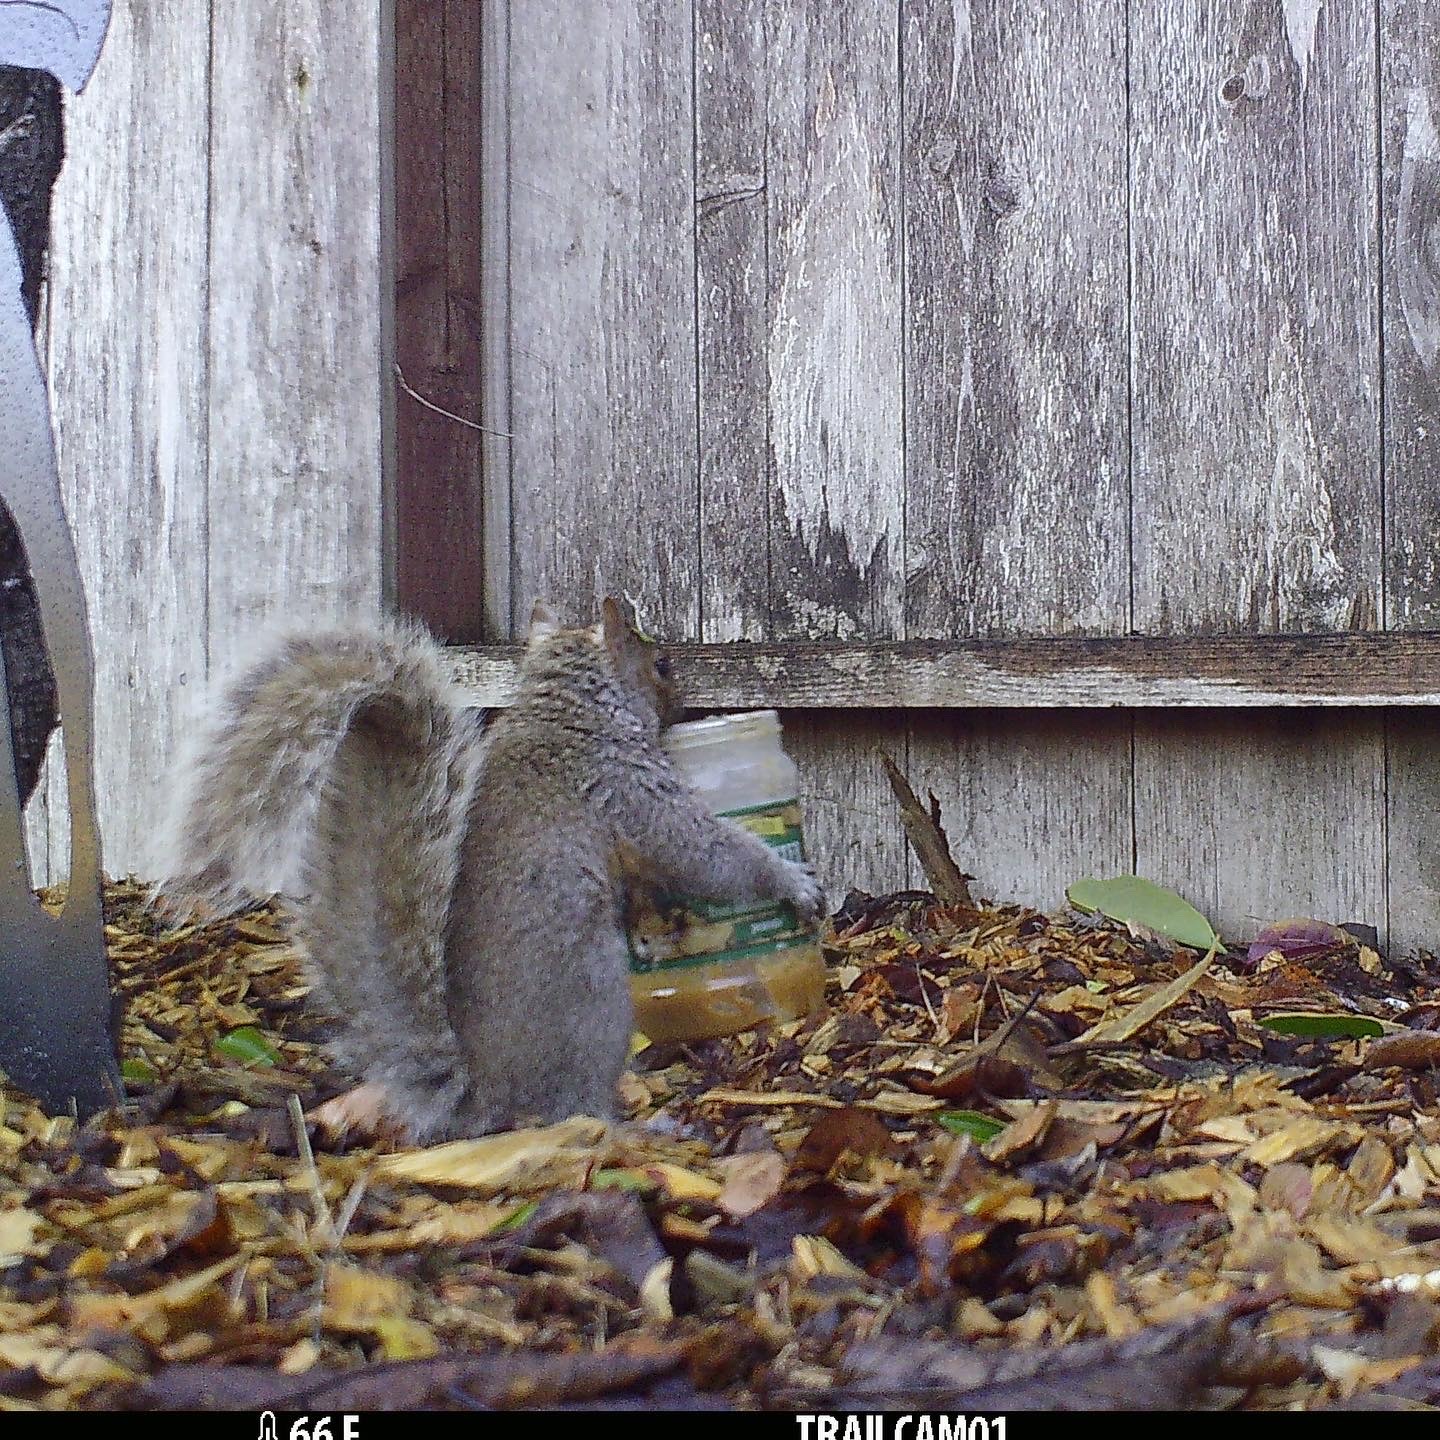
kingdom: Animalia
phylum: Chordata
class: Mammalia
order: Rodentia
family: Sciuridae
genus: Sciurus
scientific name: Sciurus carolinensis
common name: Eastern gray squirrel
